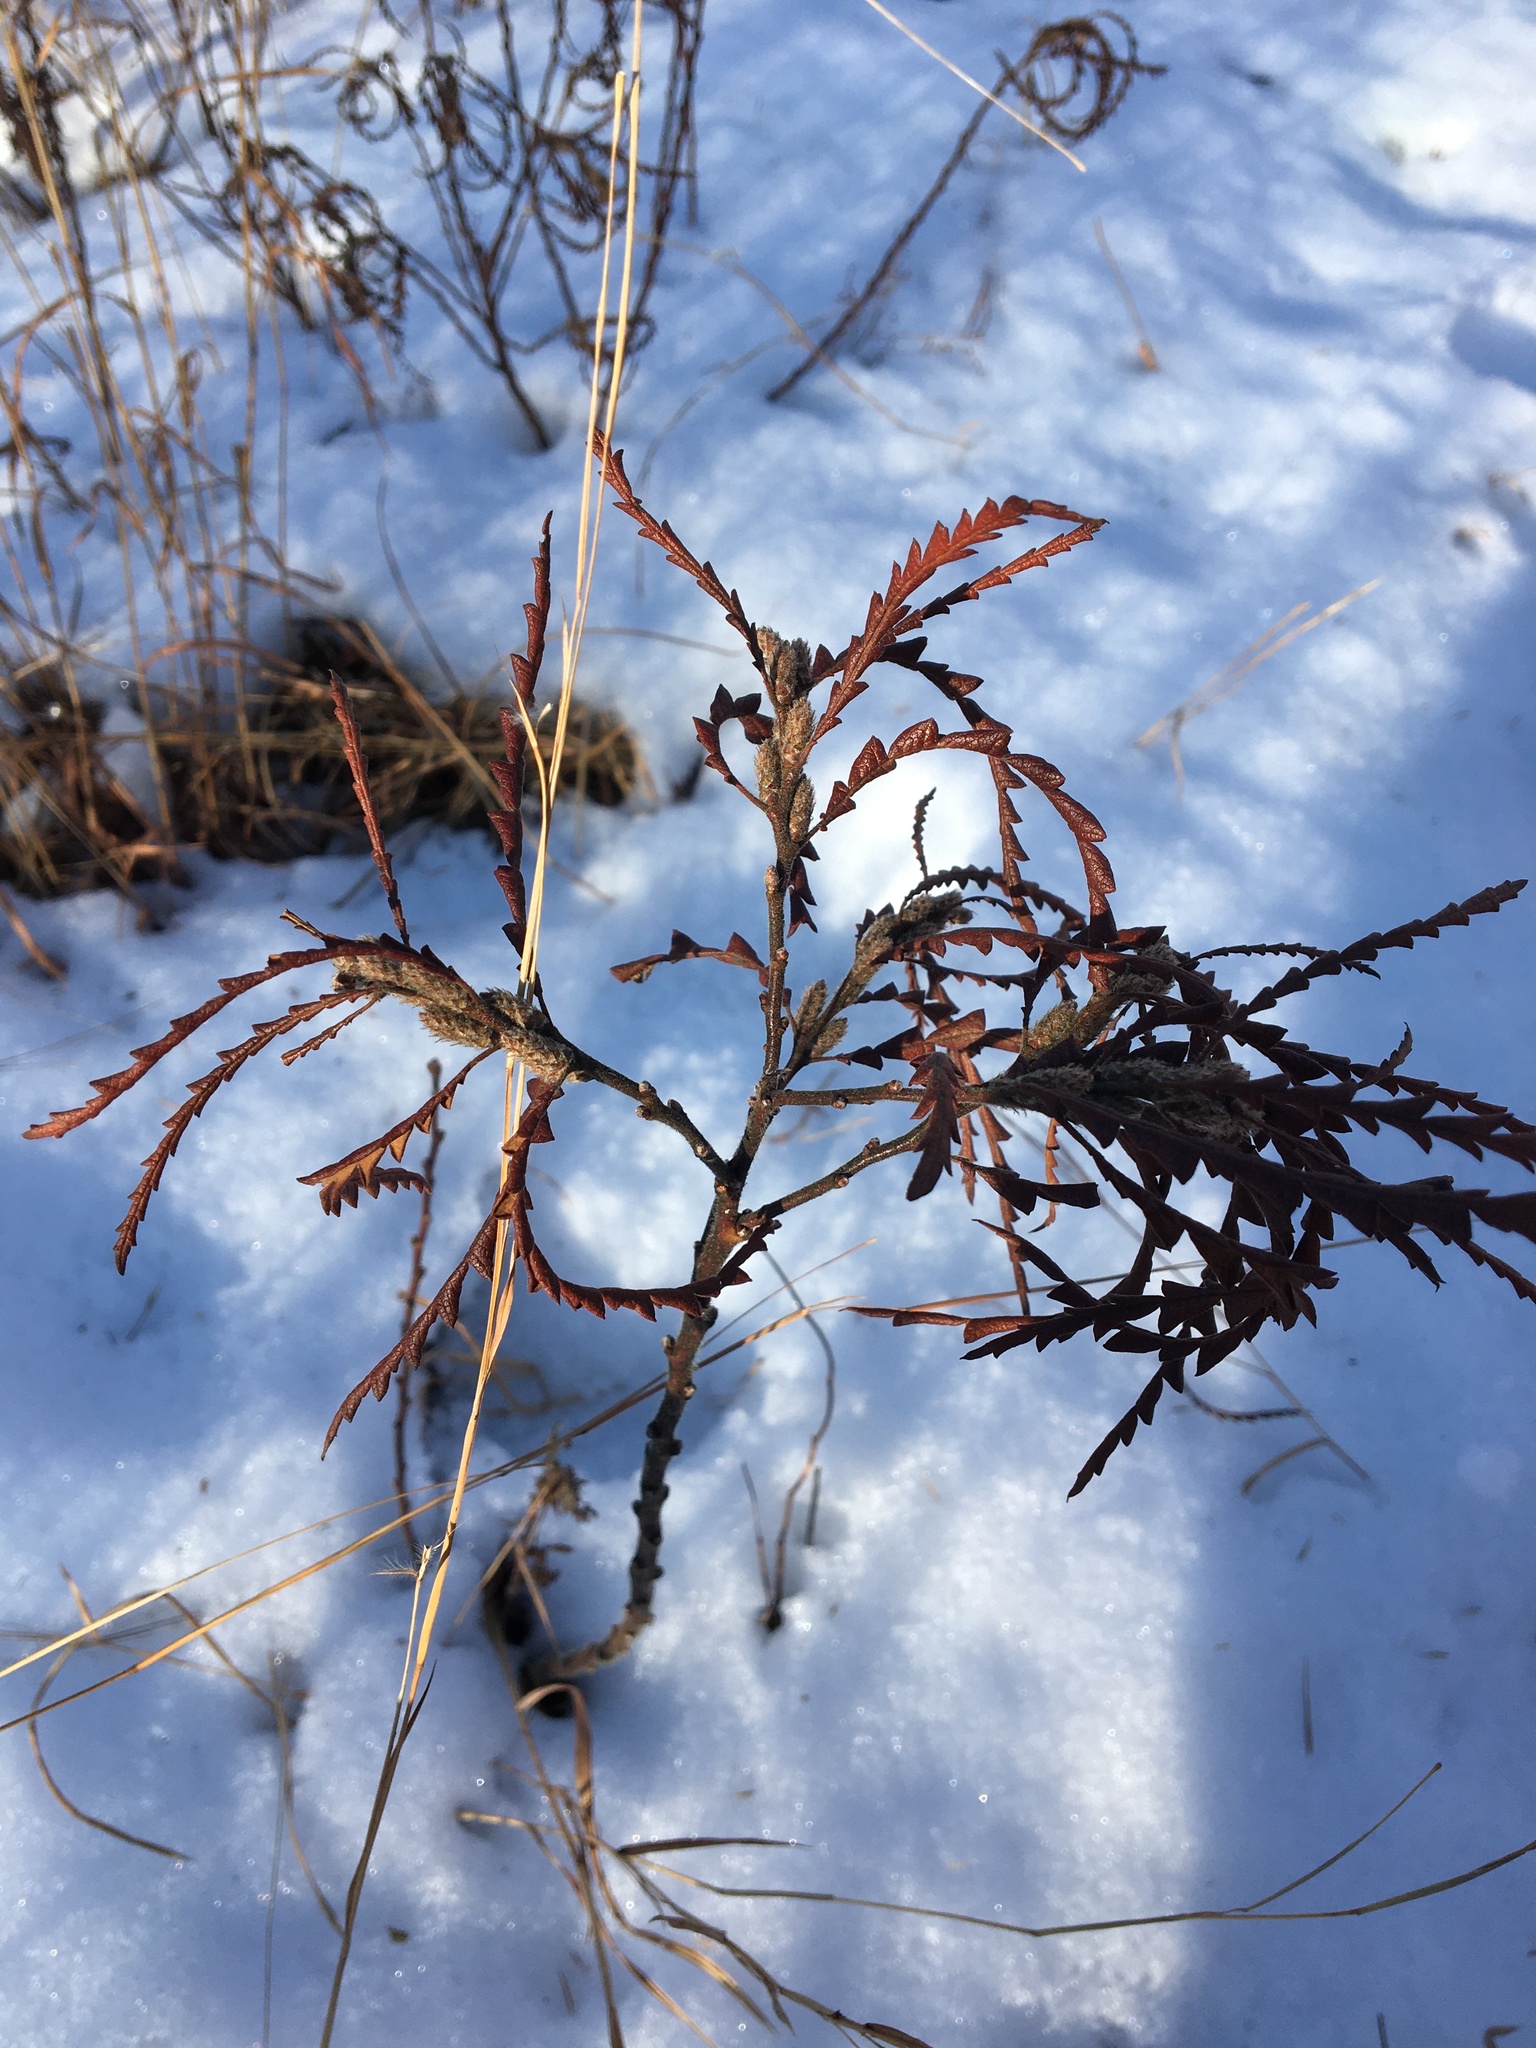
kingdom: Plantae
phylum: Tracheophyta
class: Magnoliopsida
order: Fagales
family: Myricaceae
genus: Comptonia
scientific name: Comptonia peregrina
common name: Sweet-fern
